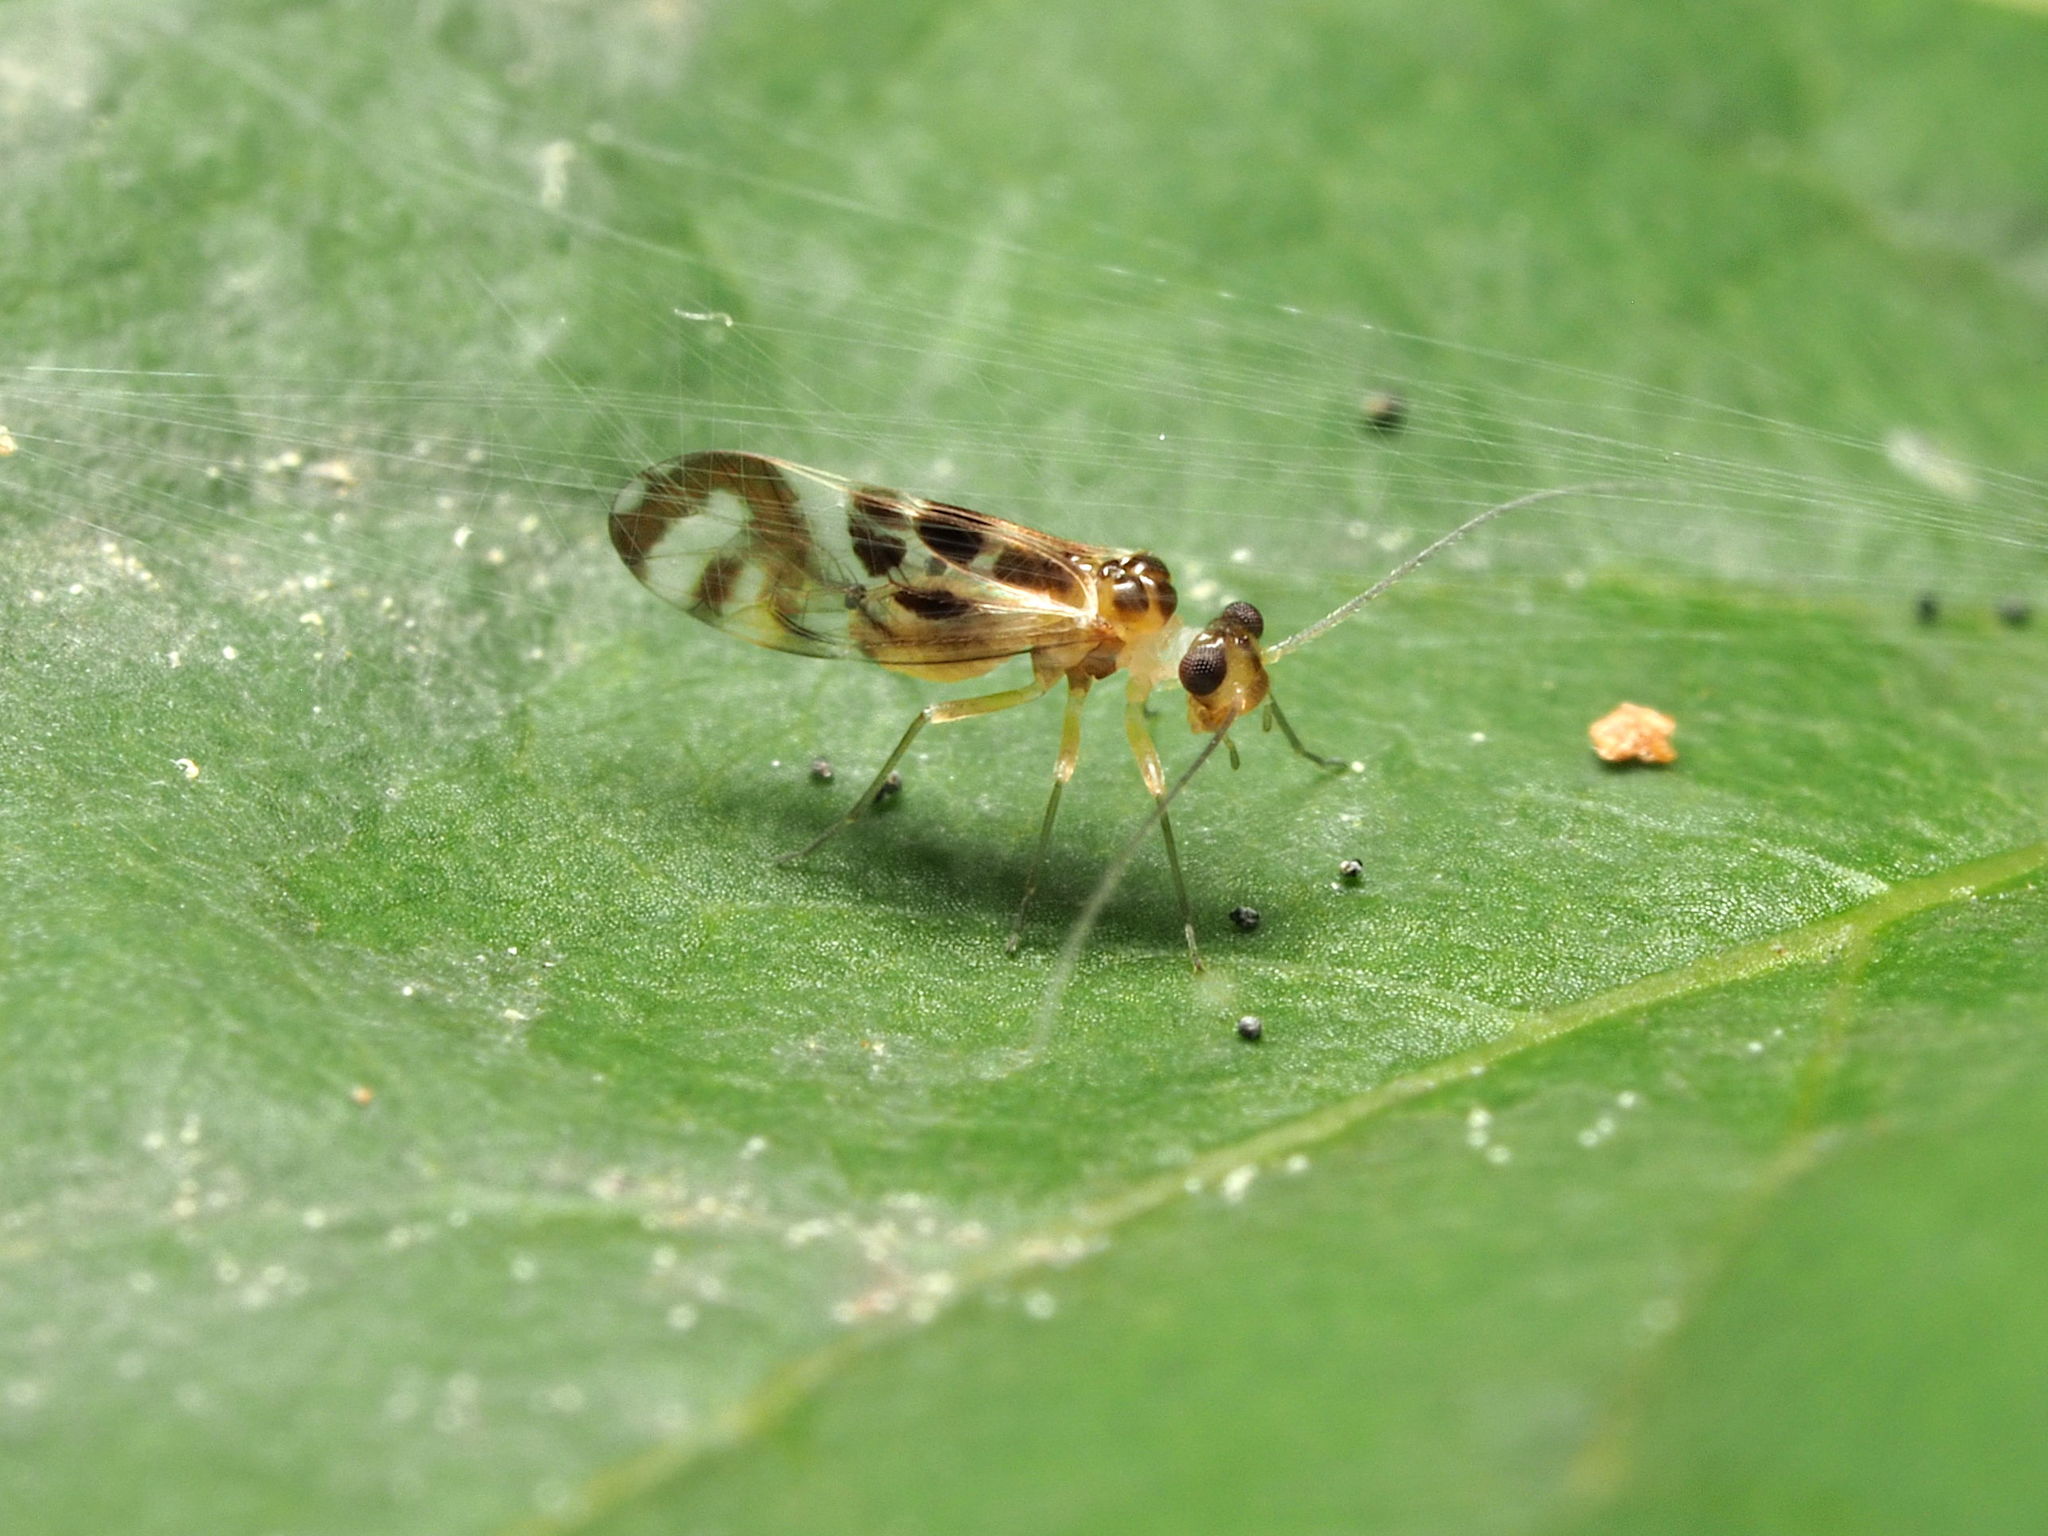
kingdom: Animalia
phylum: Arthropoda
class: Insecta
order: Psocodea
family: Stenopsocidae
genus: Graphopsocus
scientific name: Graphopsocus cruciatus
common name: Lizard bark louse
